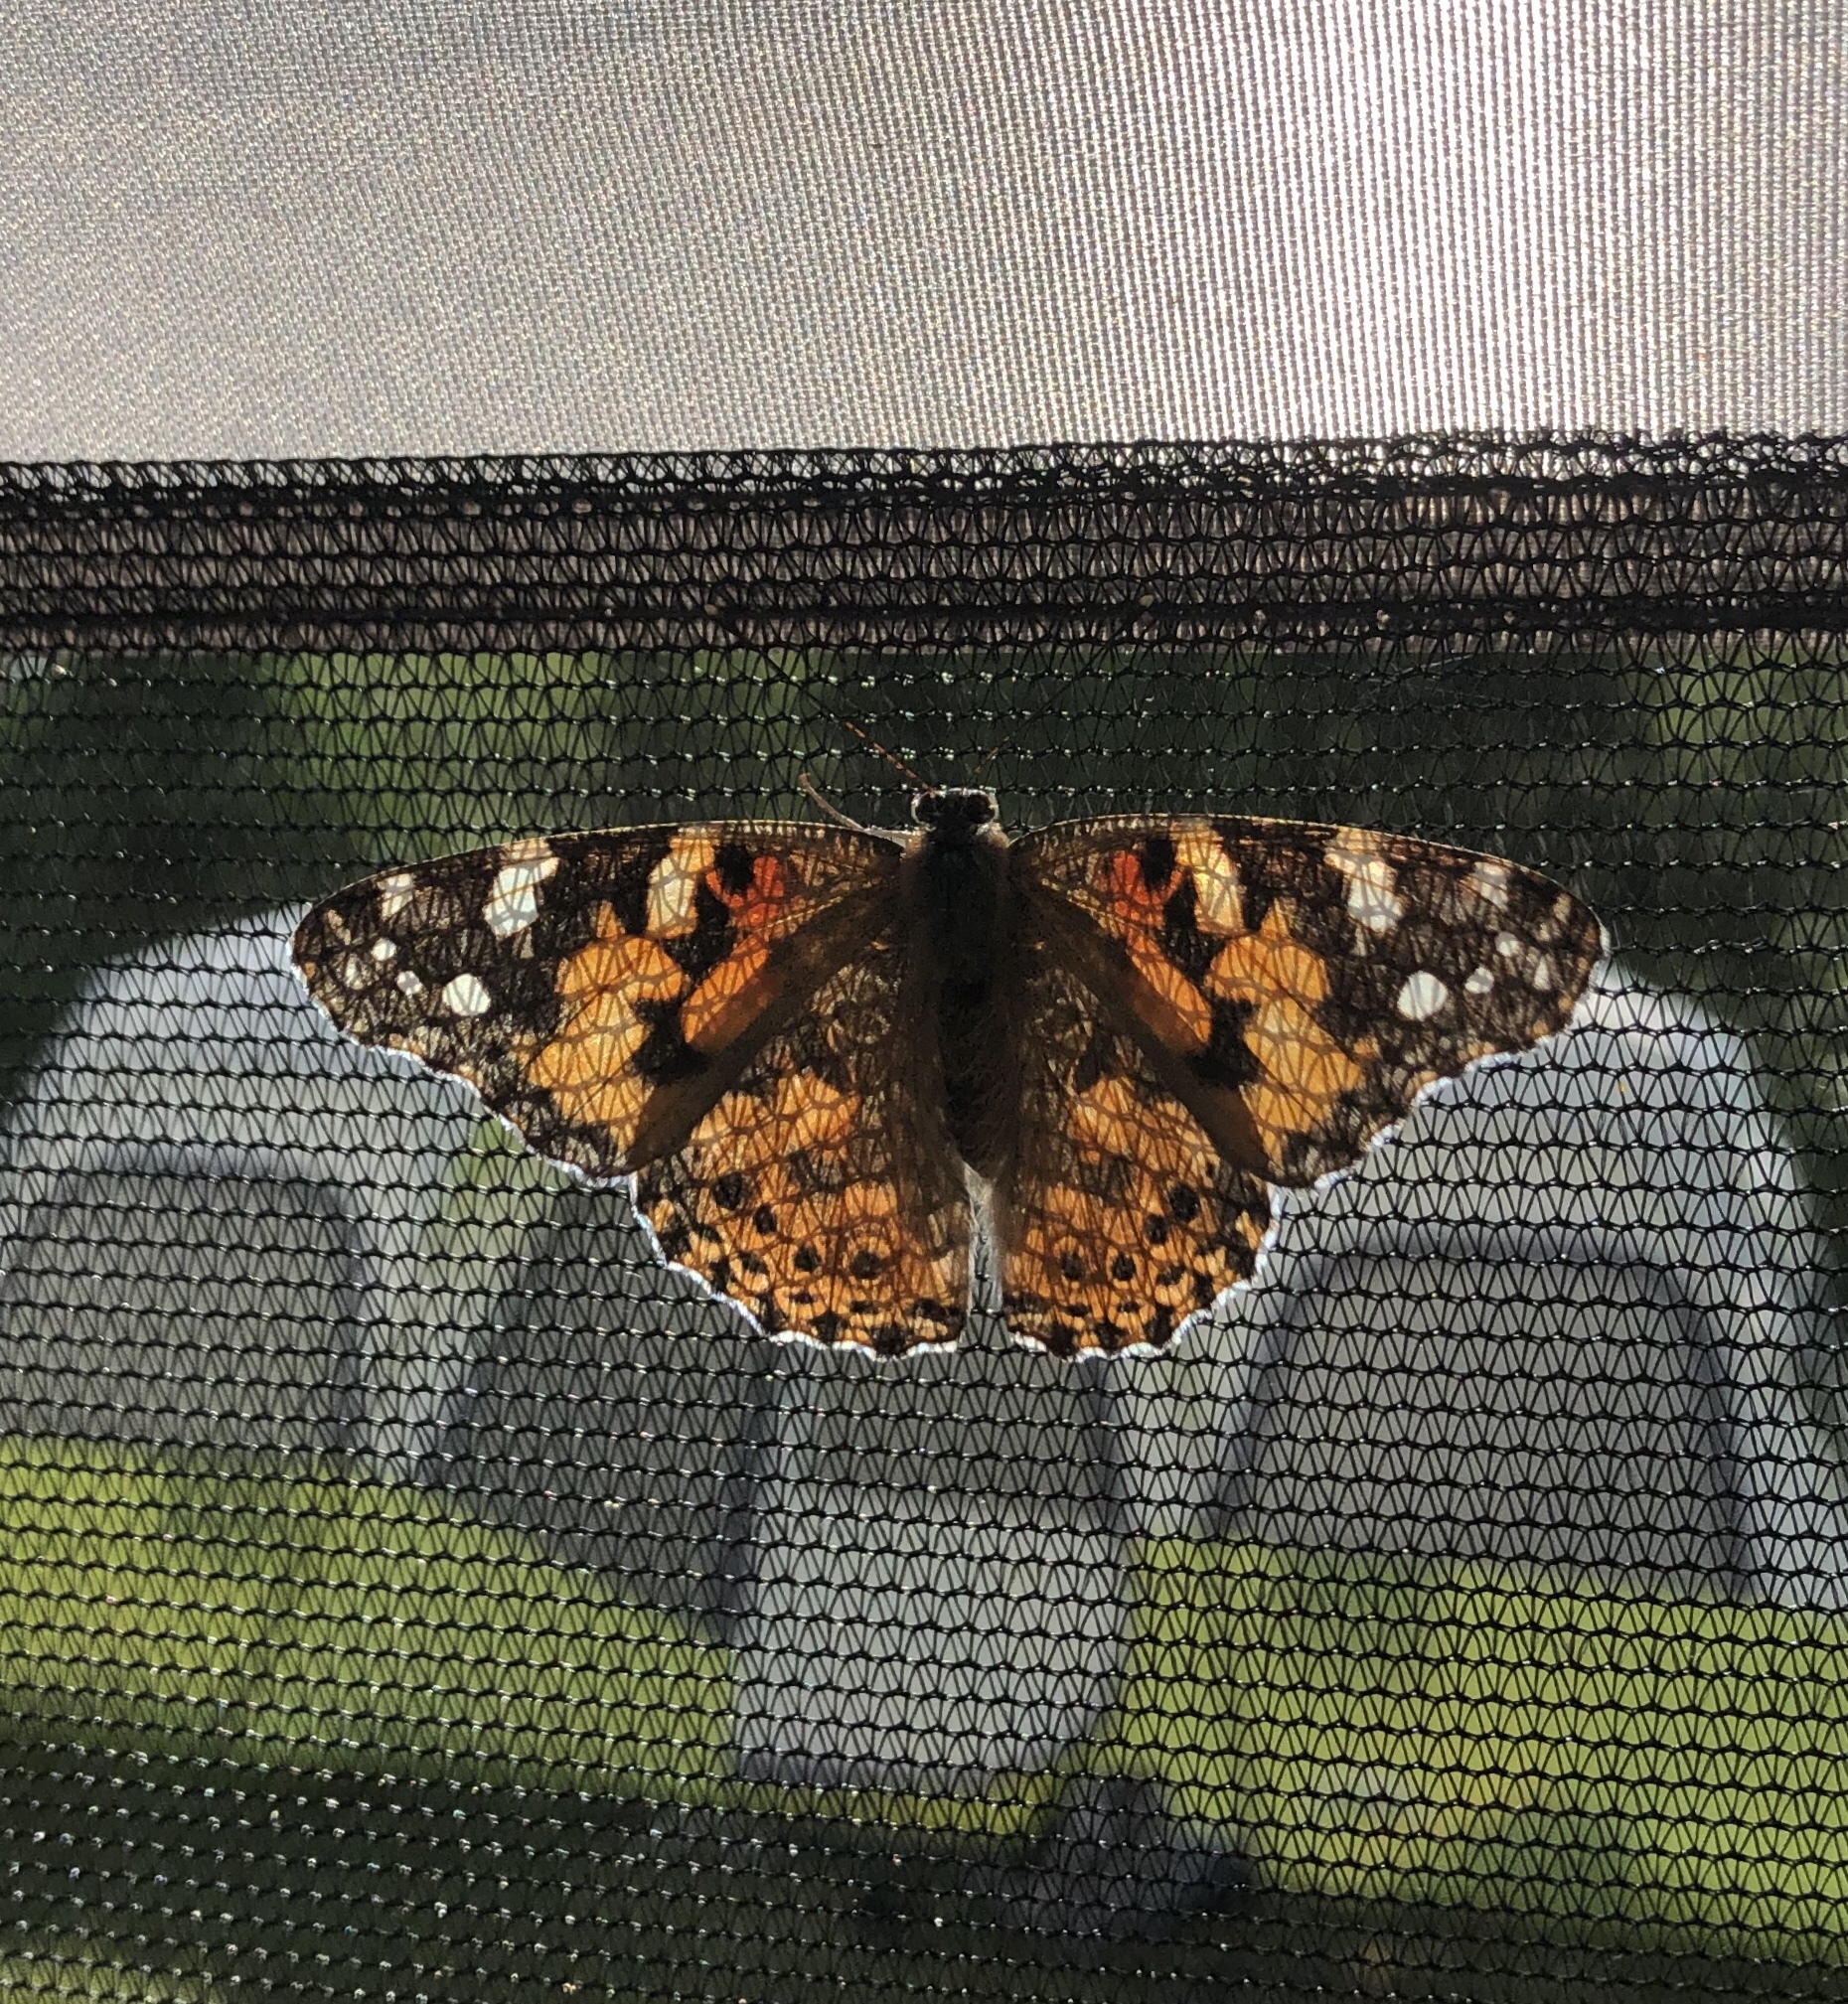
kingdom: Animalia
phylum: Arthropoda
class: Insecta
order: Lepidoptera
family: Nymphalidae
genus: Vanessa
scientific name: Vanessa cardui
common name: Painted lady
